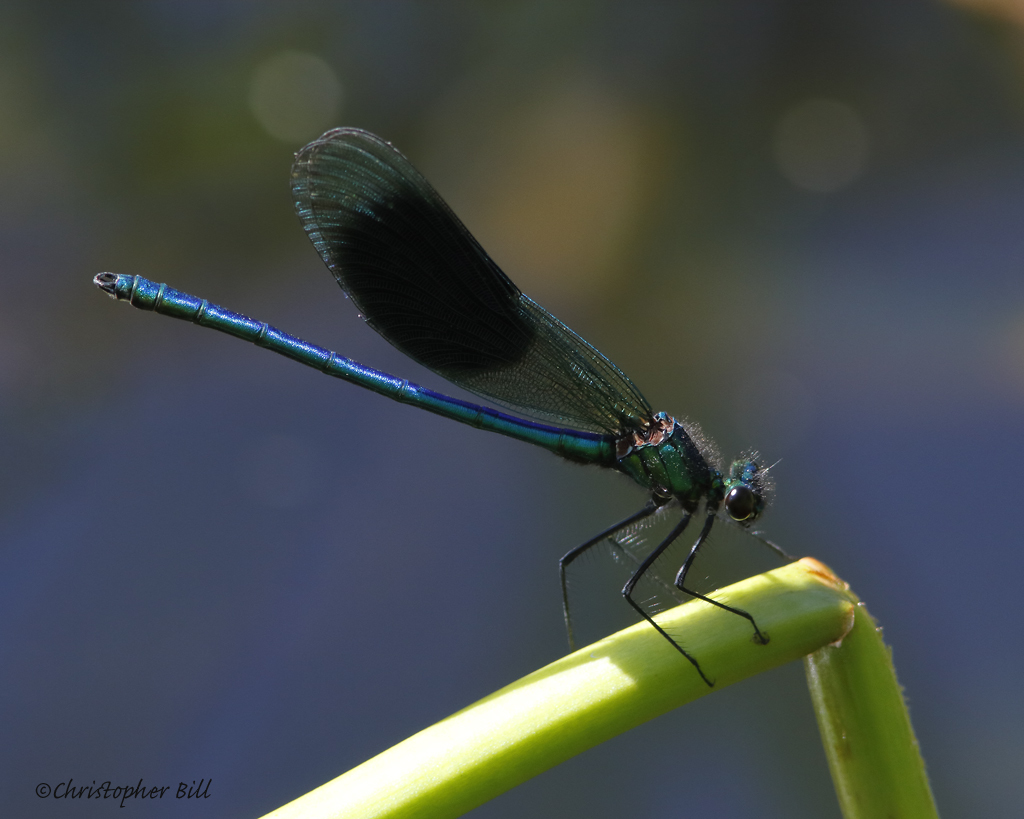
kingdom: Animalia
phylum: Arthropoda
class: Insecta
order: Odonata
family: Calopterygidae
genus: Calopteryx
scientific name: Calopteryx splendens
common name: Banded demoiselle
